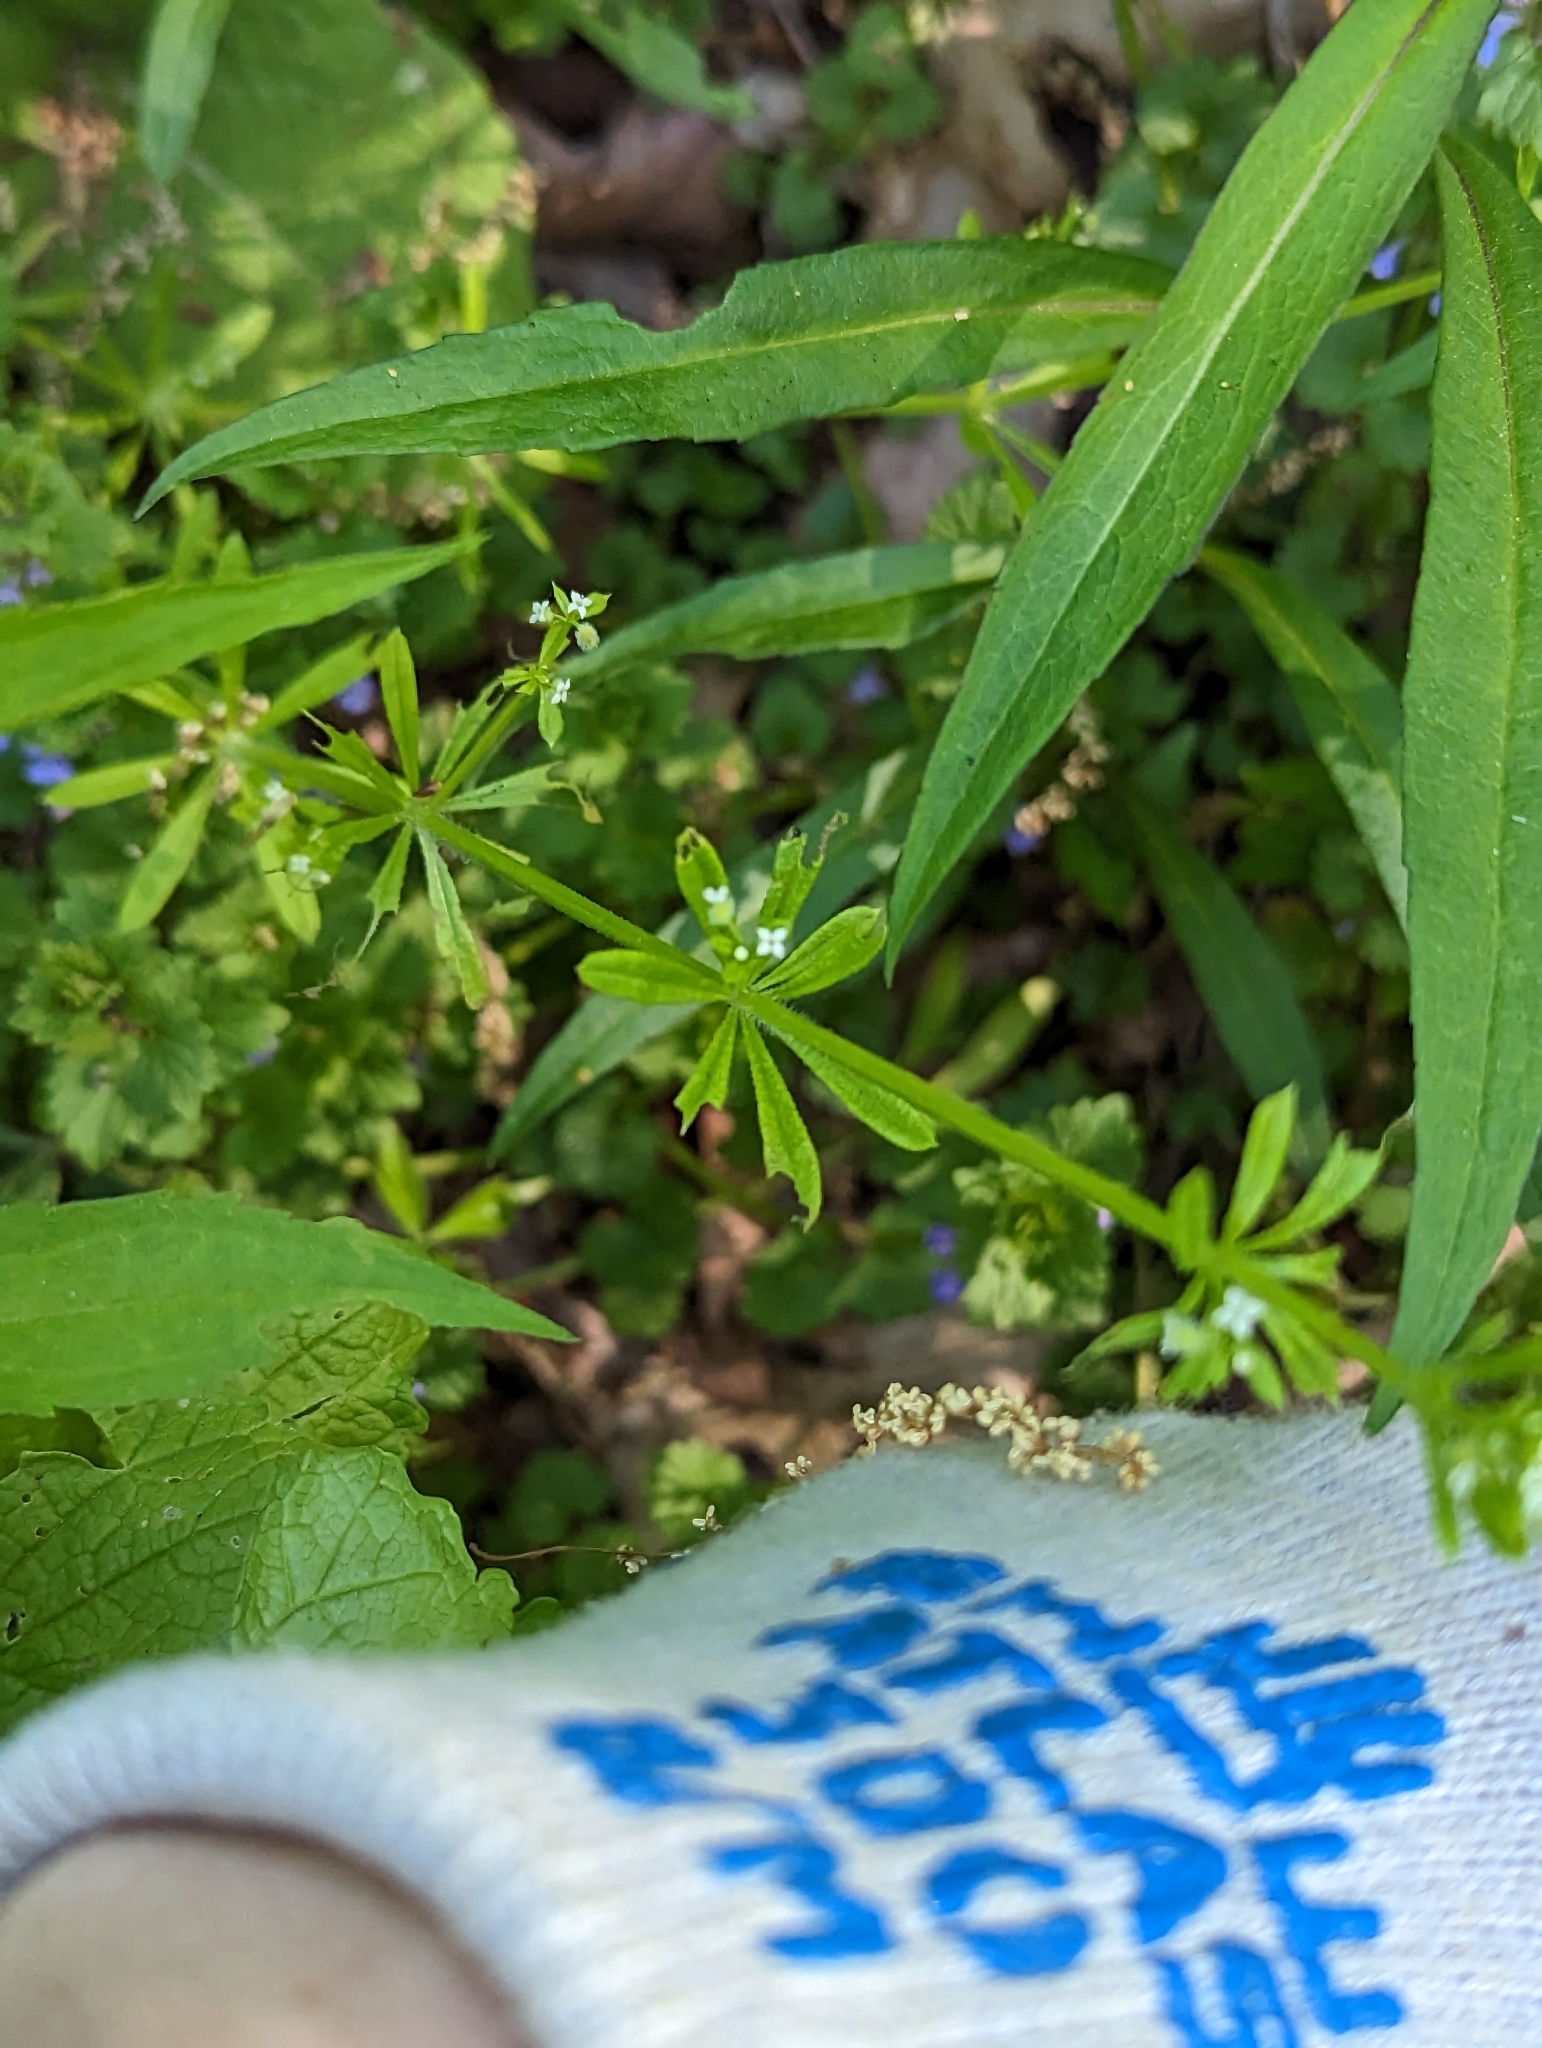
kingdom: Plantae
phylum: Tracheophyta
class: Magnoliopsida
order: Gentianales
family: Rubiaceae
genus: Galium
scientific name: Galium aparine
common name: Cleavers
